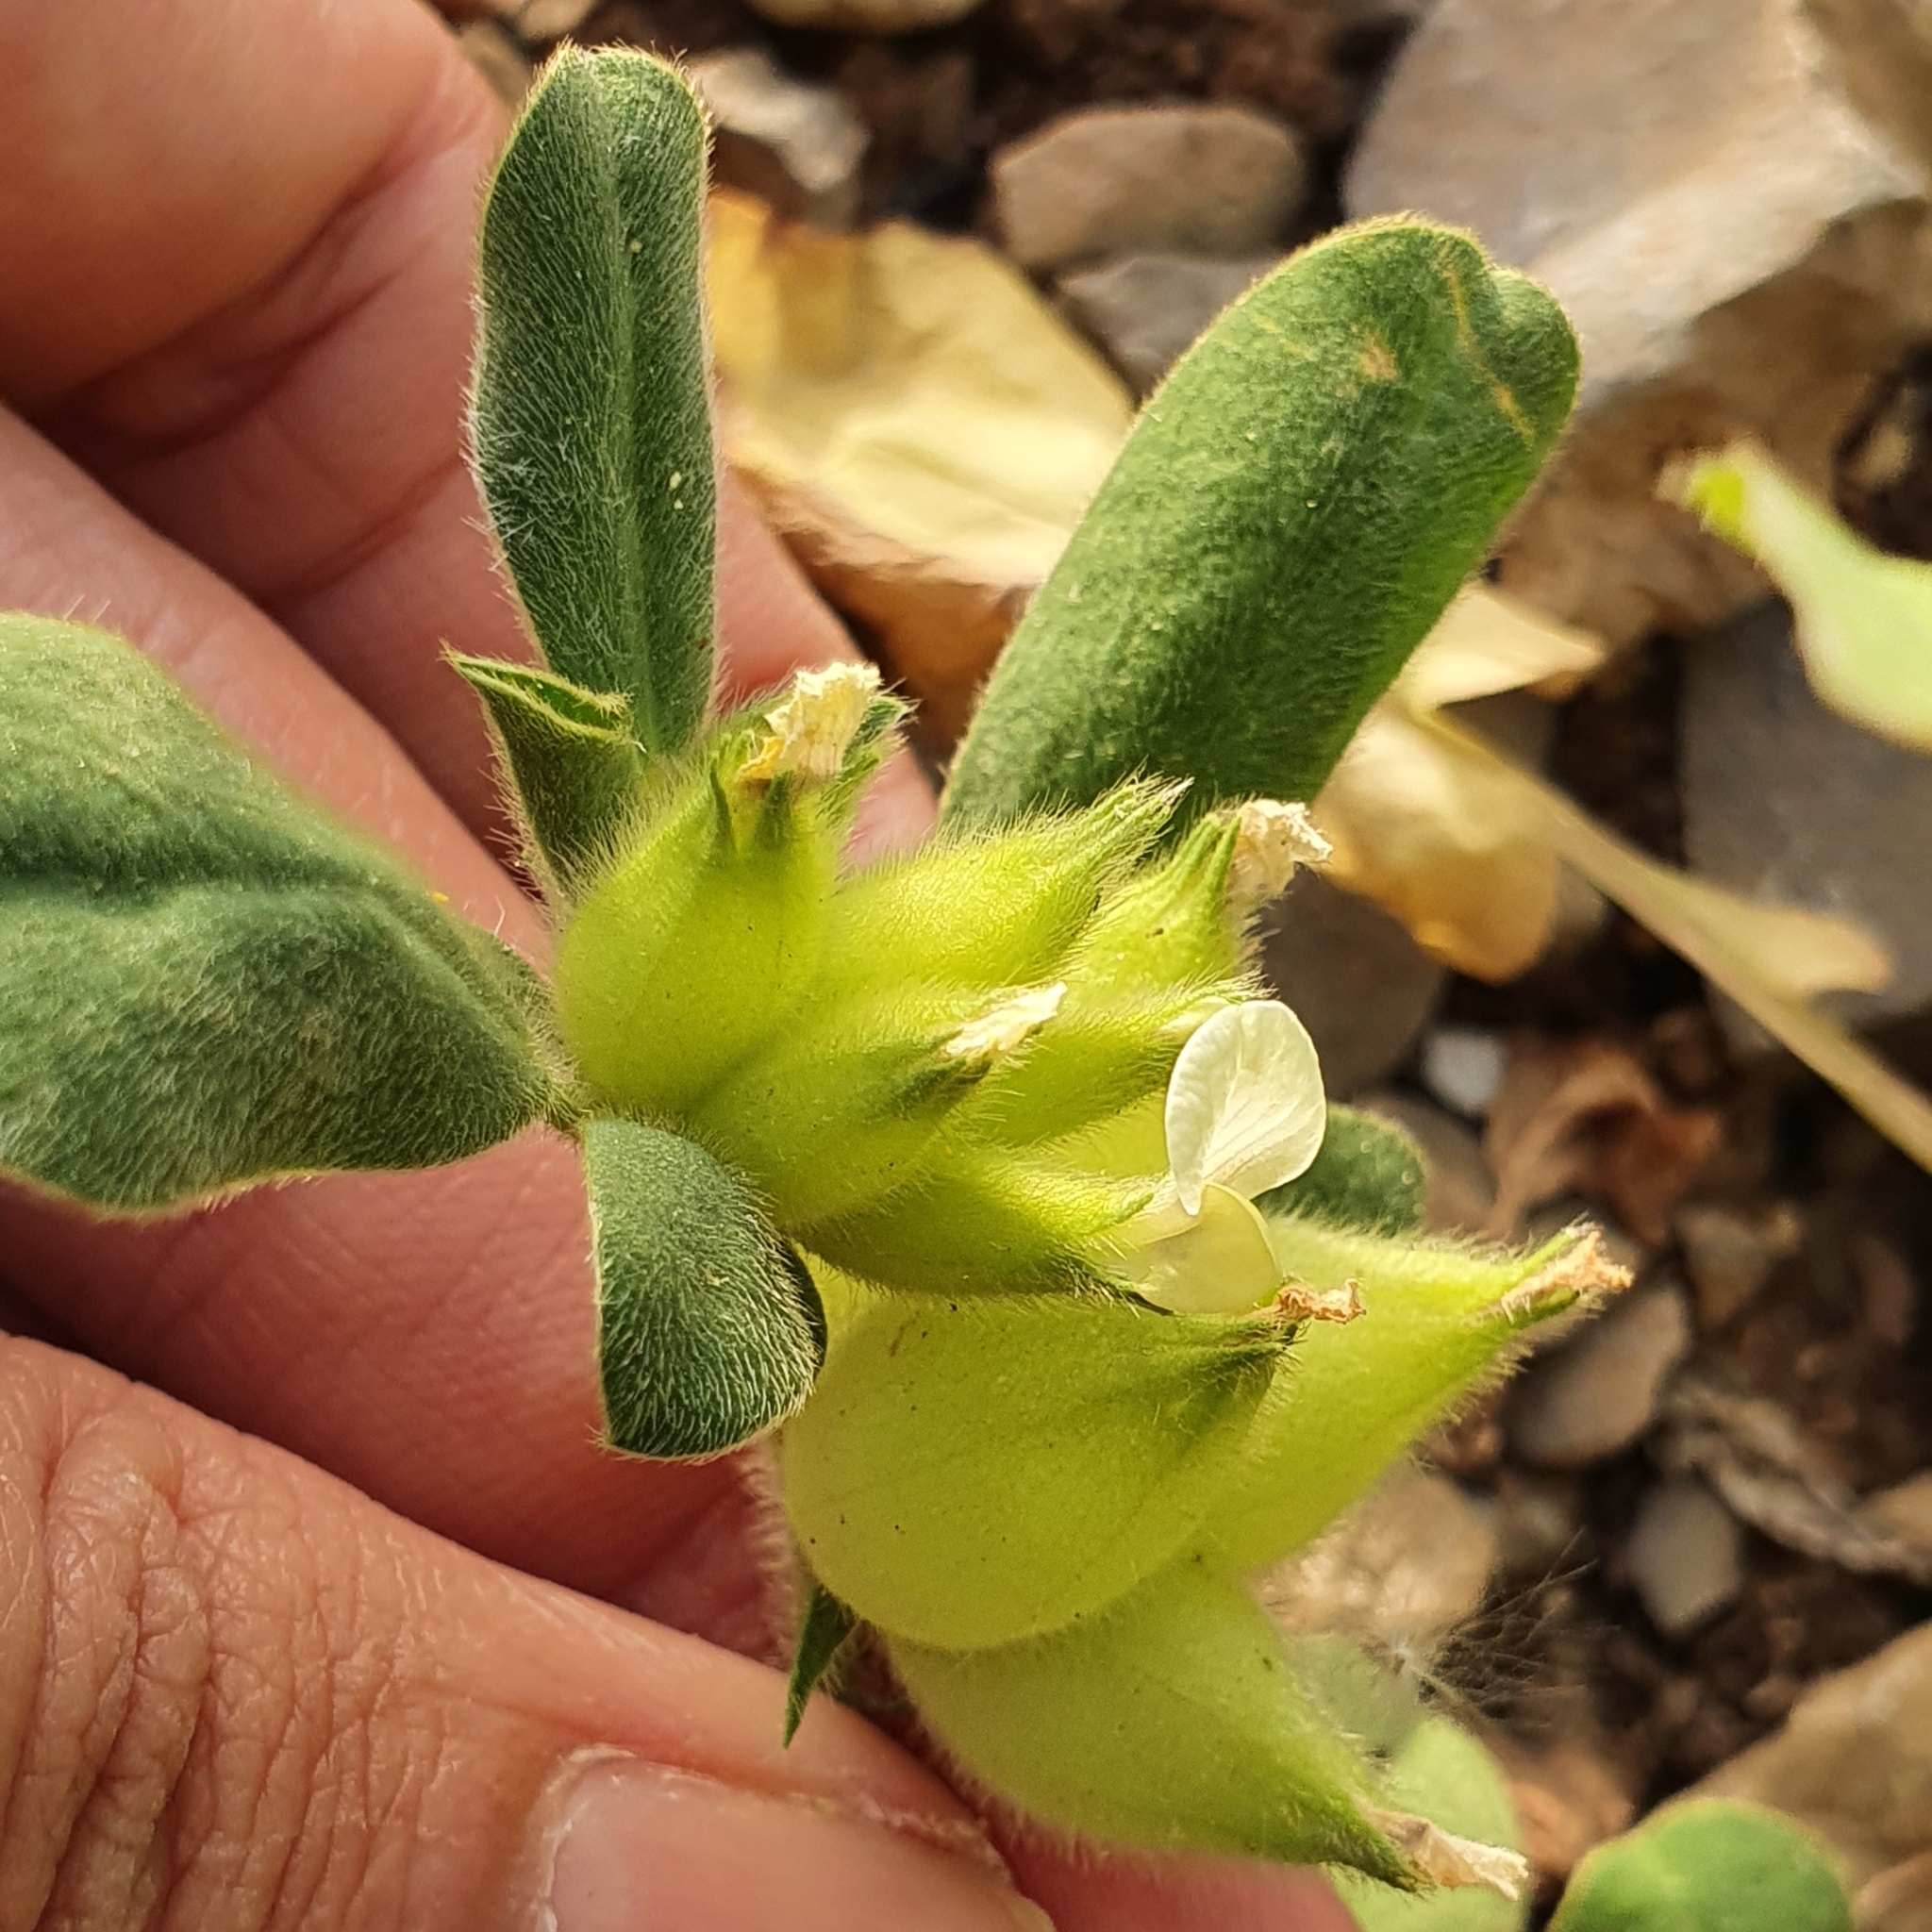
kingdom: Plantae
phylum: Tracheophyta
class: Magnoliopsida
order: Fabales
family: Fabaceae
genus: Tripodion
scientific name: Tripodion tetraphyllum
